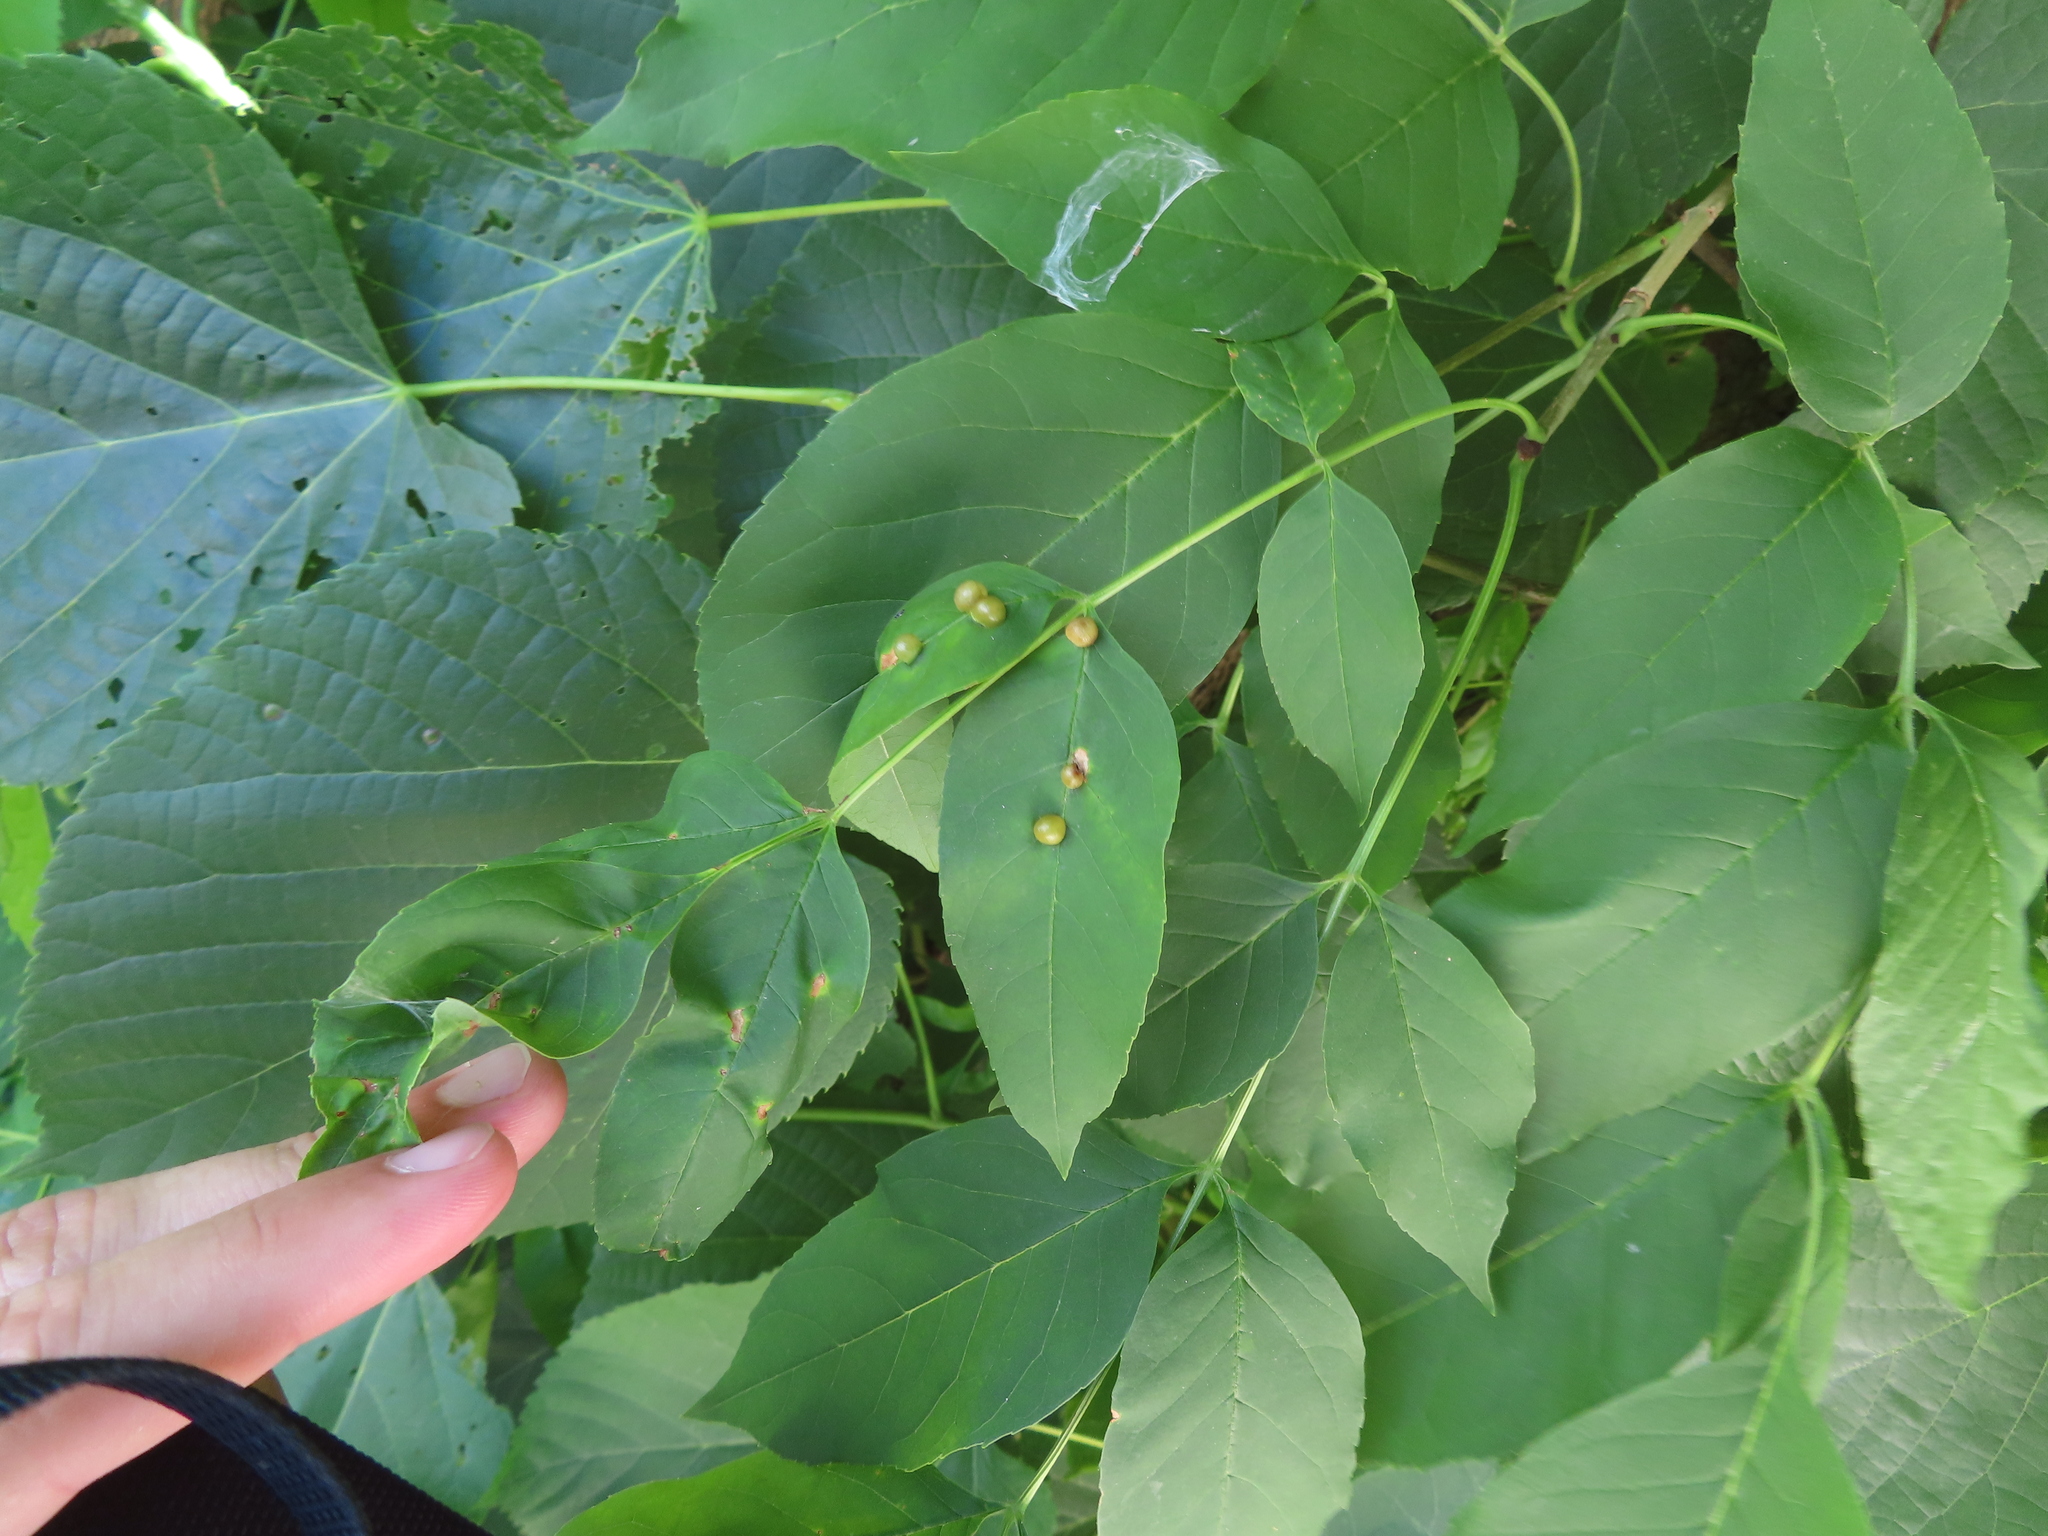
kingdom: Animalia
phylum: Arthropoda
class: Insecta
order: Diptera
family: Cecidomyiidae
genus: Dasineura
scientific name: Dasineura pellex
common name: Ash bullet gall midge
